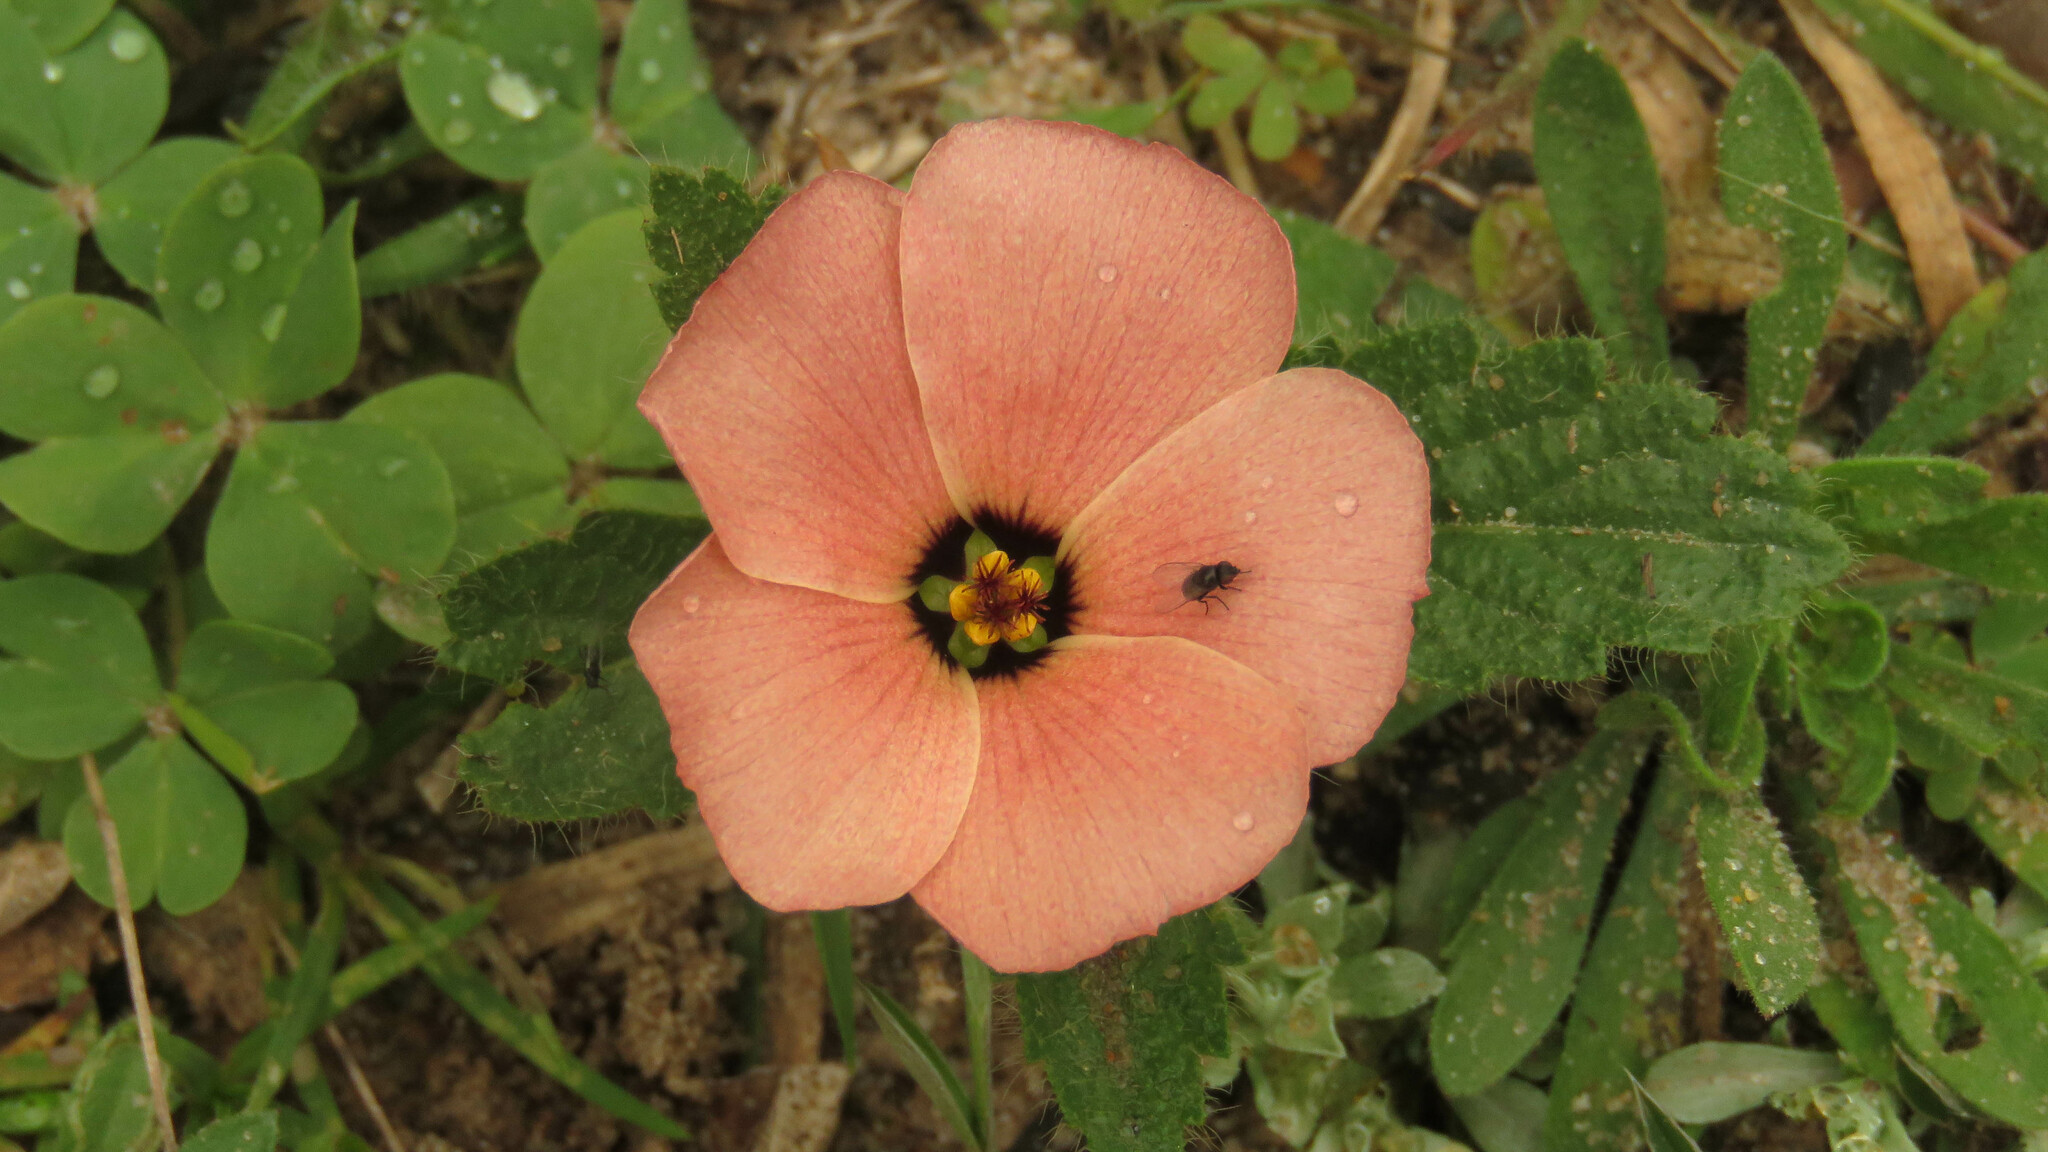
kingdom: Plantae
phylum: Tracheophyta
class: Magnoliopsida
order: Malpighiales
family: Turneraceae
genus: Turnera
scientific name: Turnera sidoides
